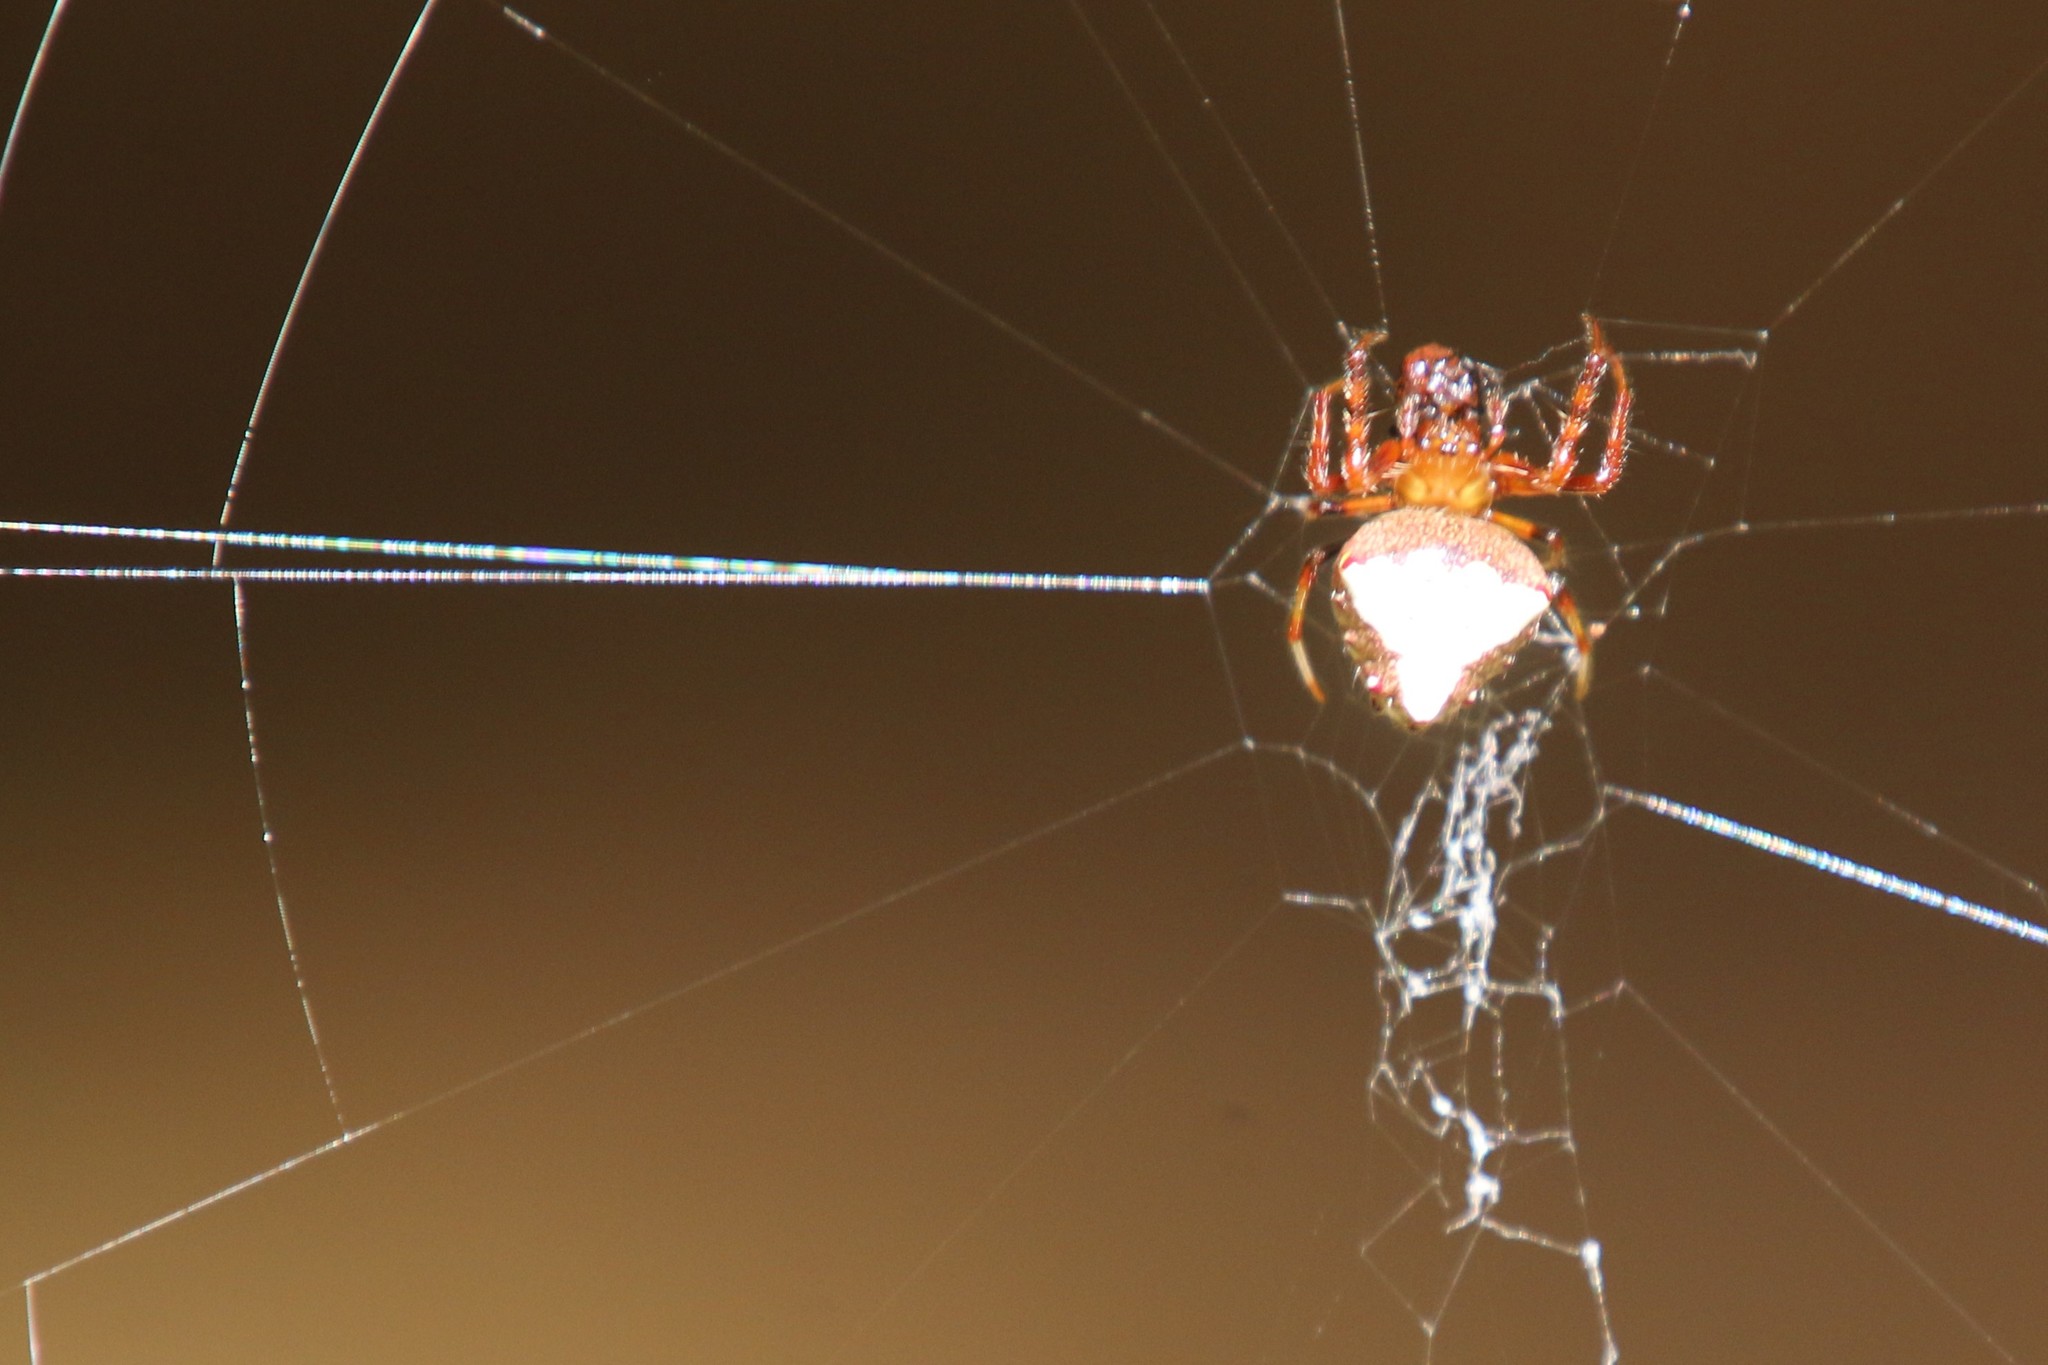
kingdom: Animalia
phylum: Arthropoda
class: Arachnida
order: Araneae
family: Araneidae
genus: Verrucosa
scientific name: Verrucosa arenata
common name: Orb weavers
